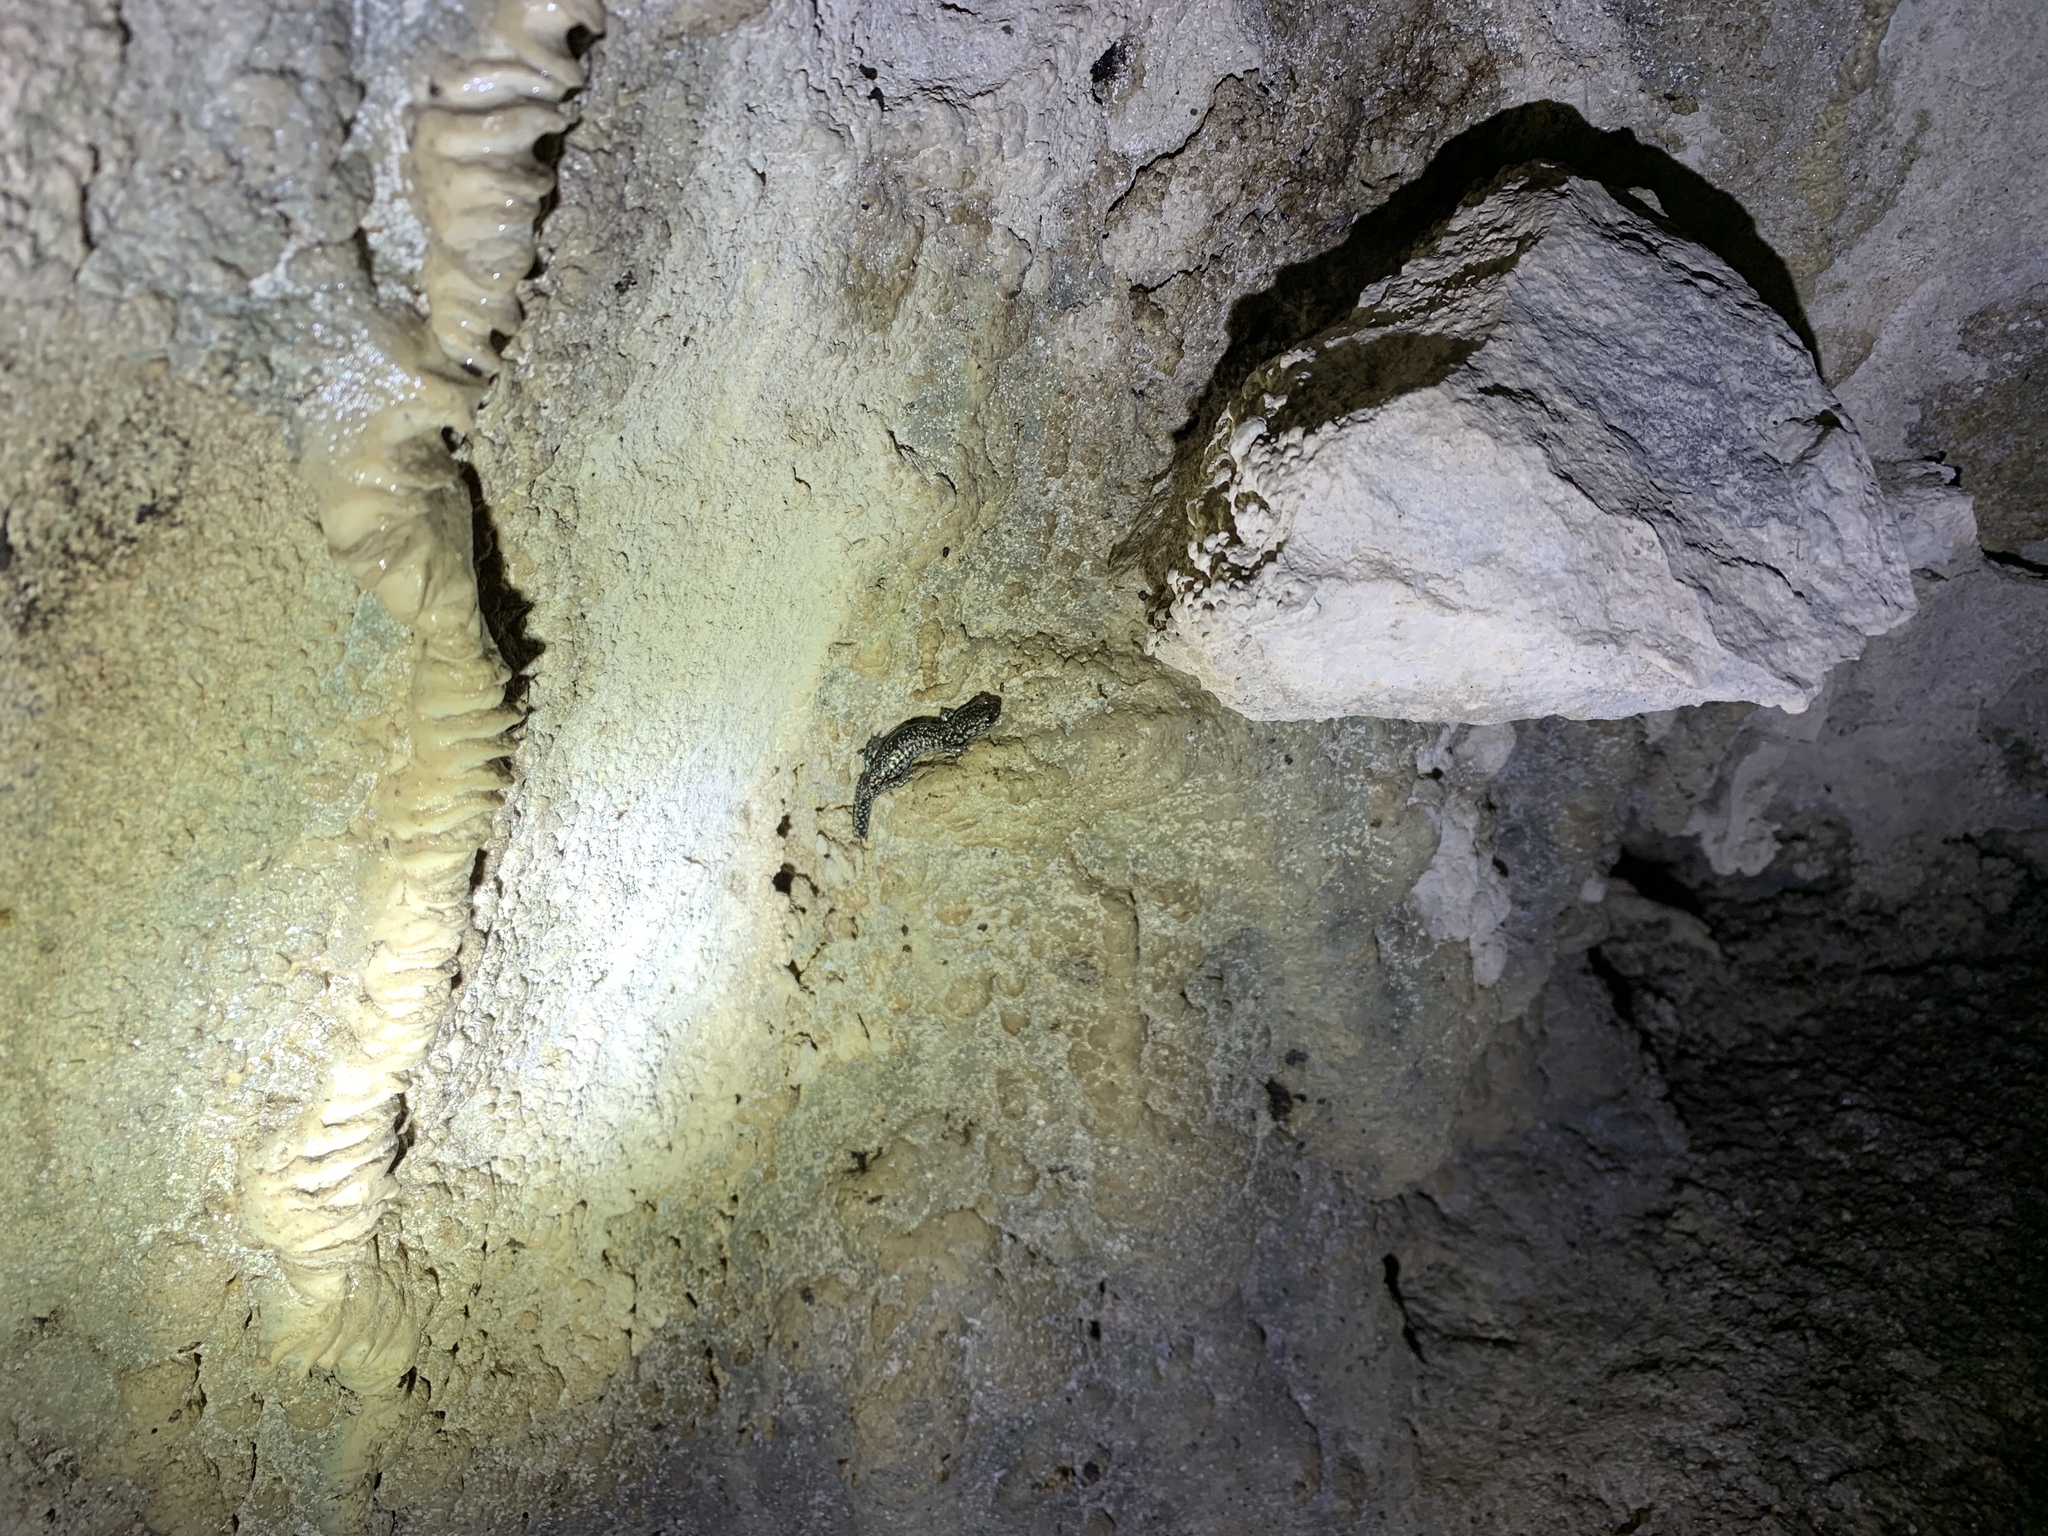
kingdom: Animalia
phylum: Chordata
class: Amphibia
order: Caudata
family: Plethodontidae
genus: Plethodon
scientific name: Plethodon glutinosus
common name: Northern slimy salamander
